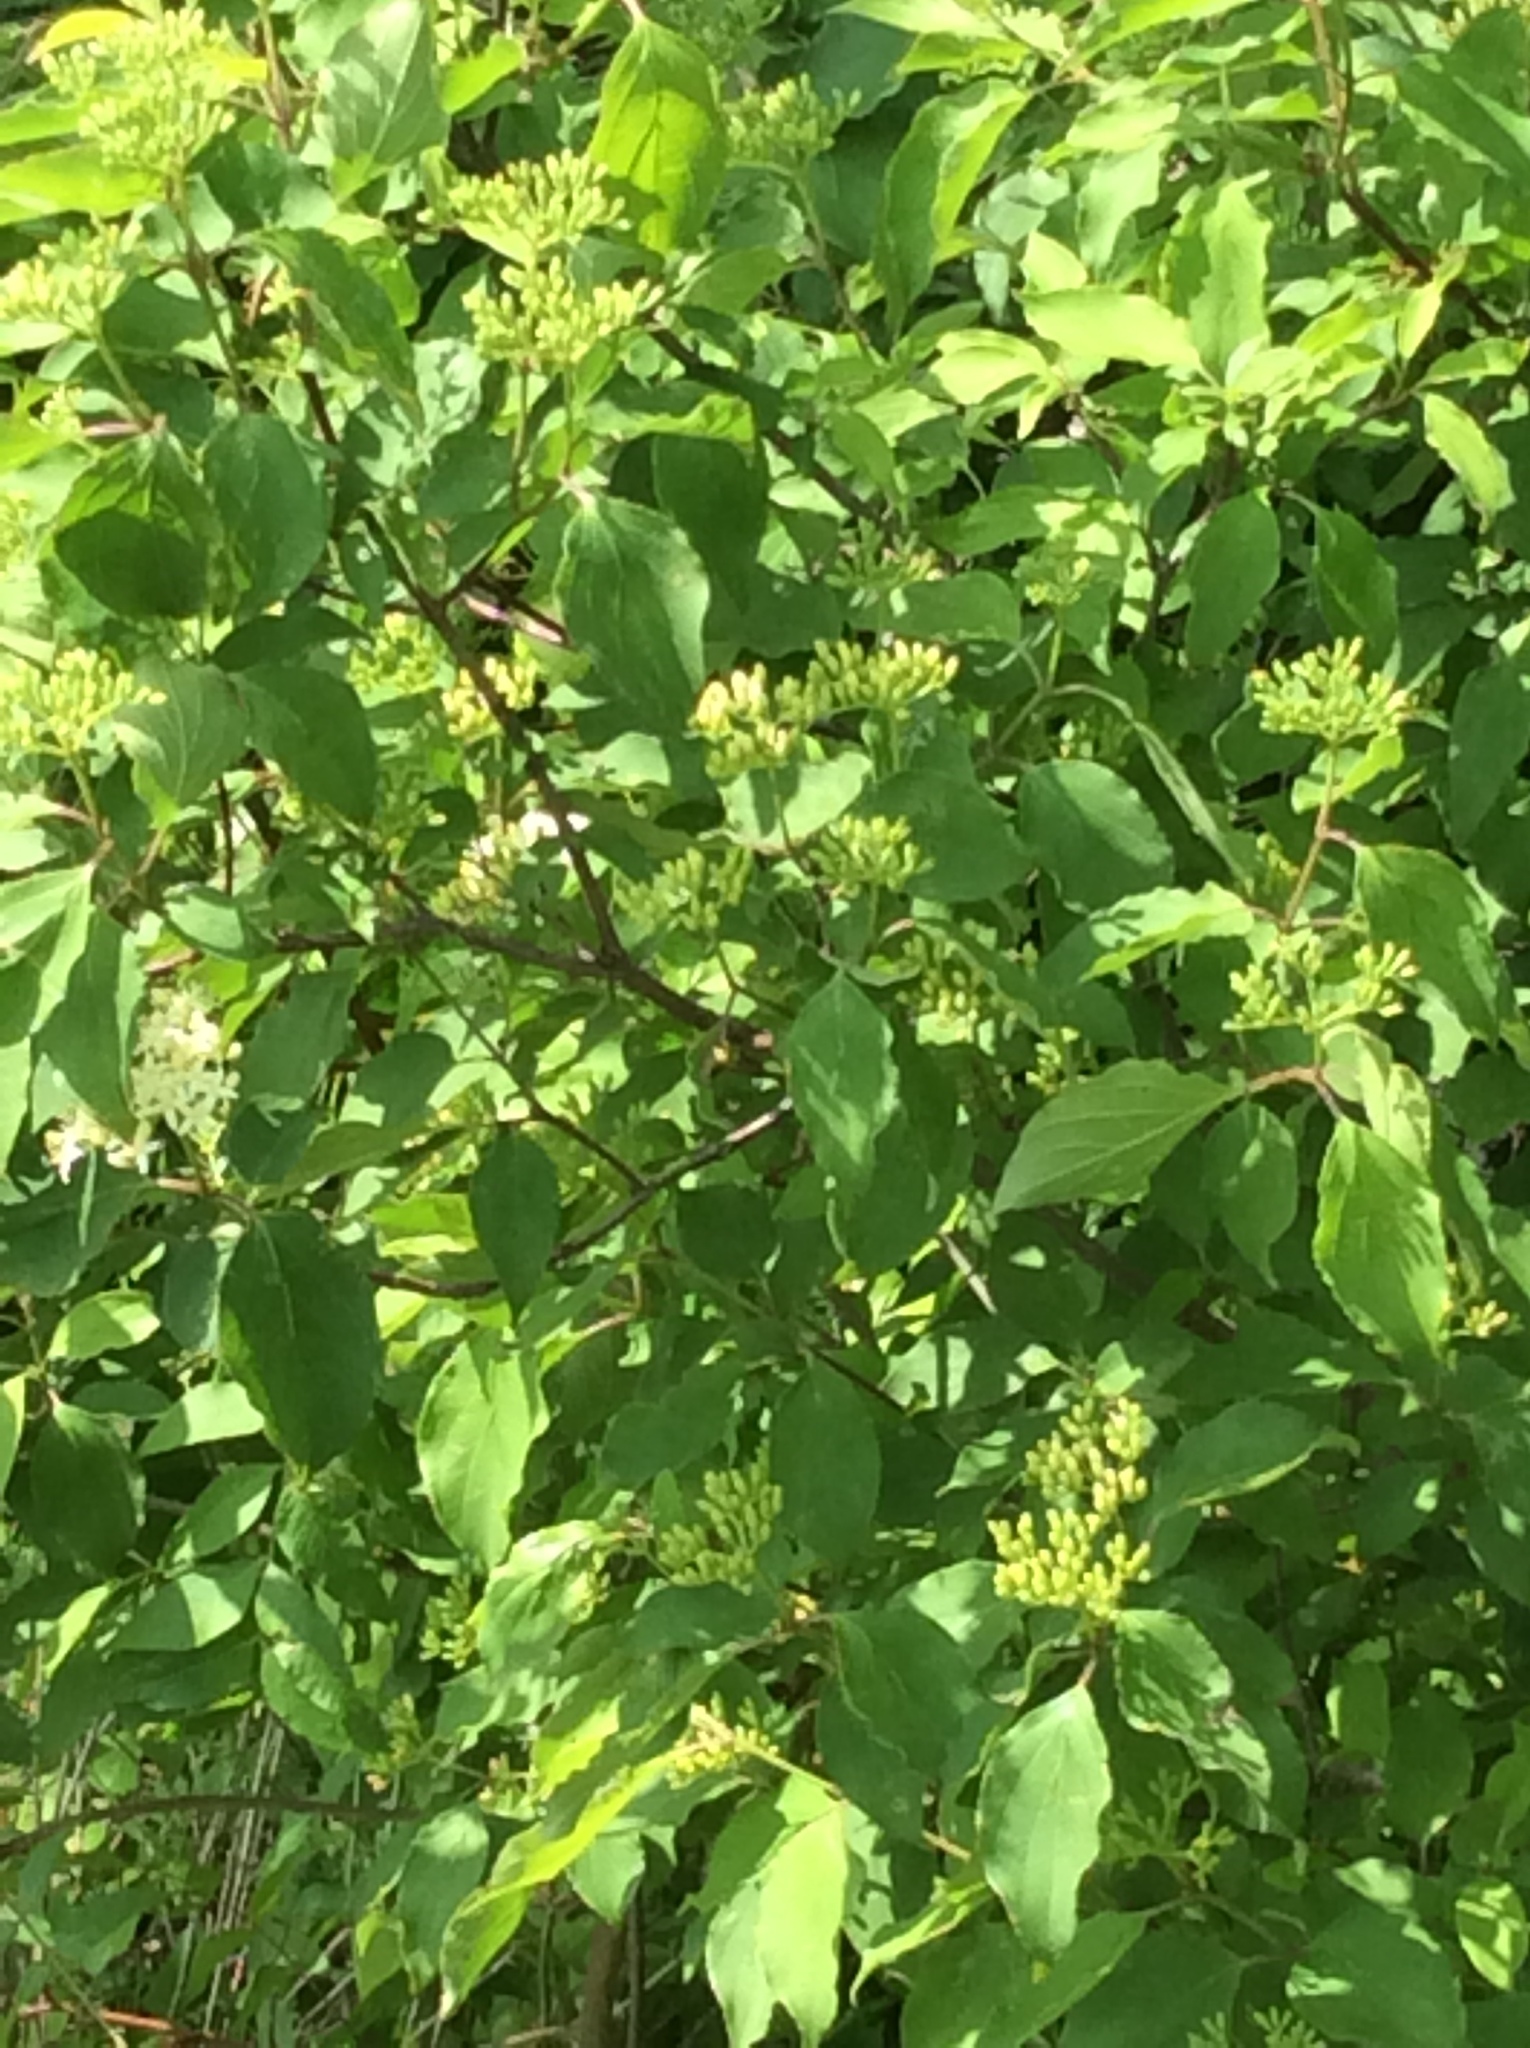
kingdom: Plantae
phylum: Tracheophyta
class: Magnoliopsida
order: Cornales
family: Cornaceae
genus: Cornus
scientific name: Cornus drummondii
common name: Rough-leaf dogwood
